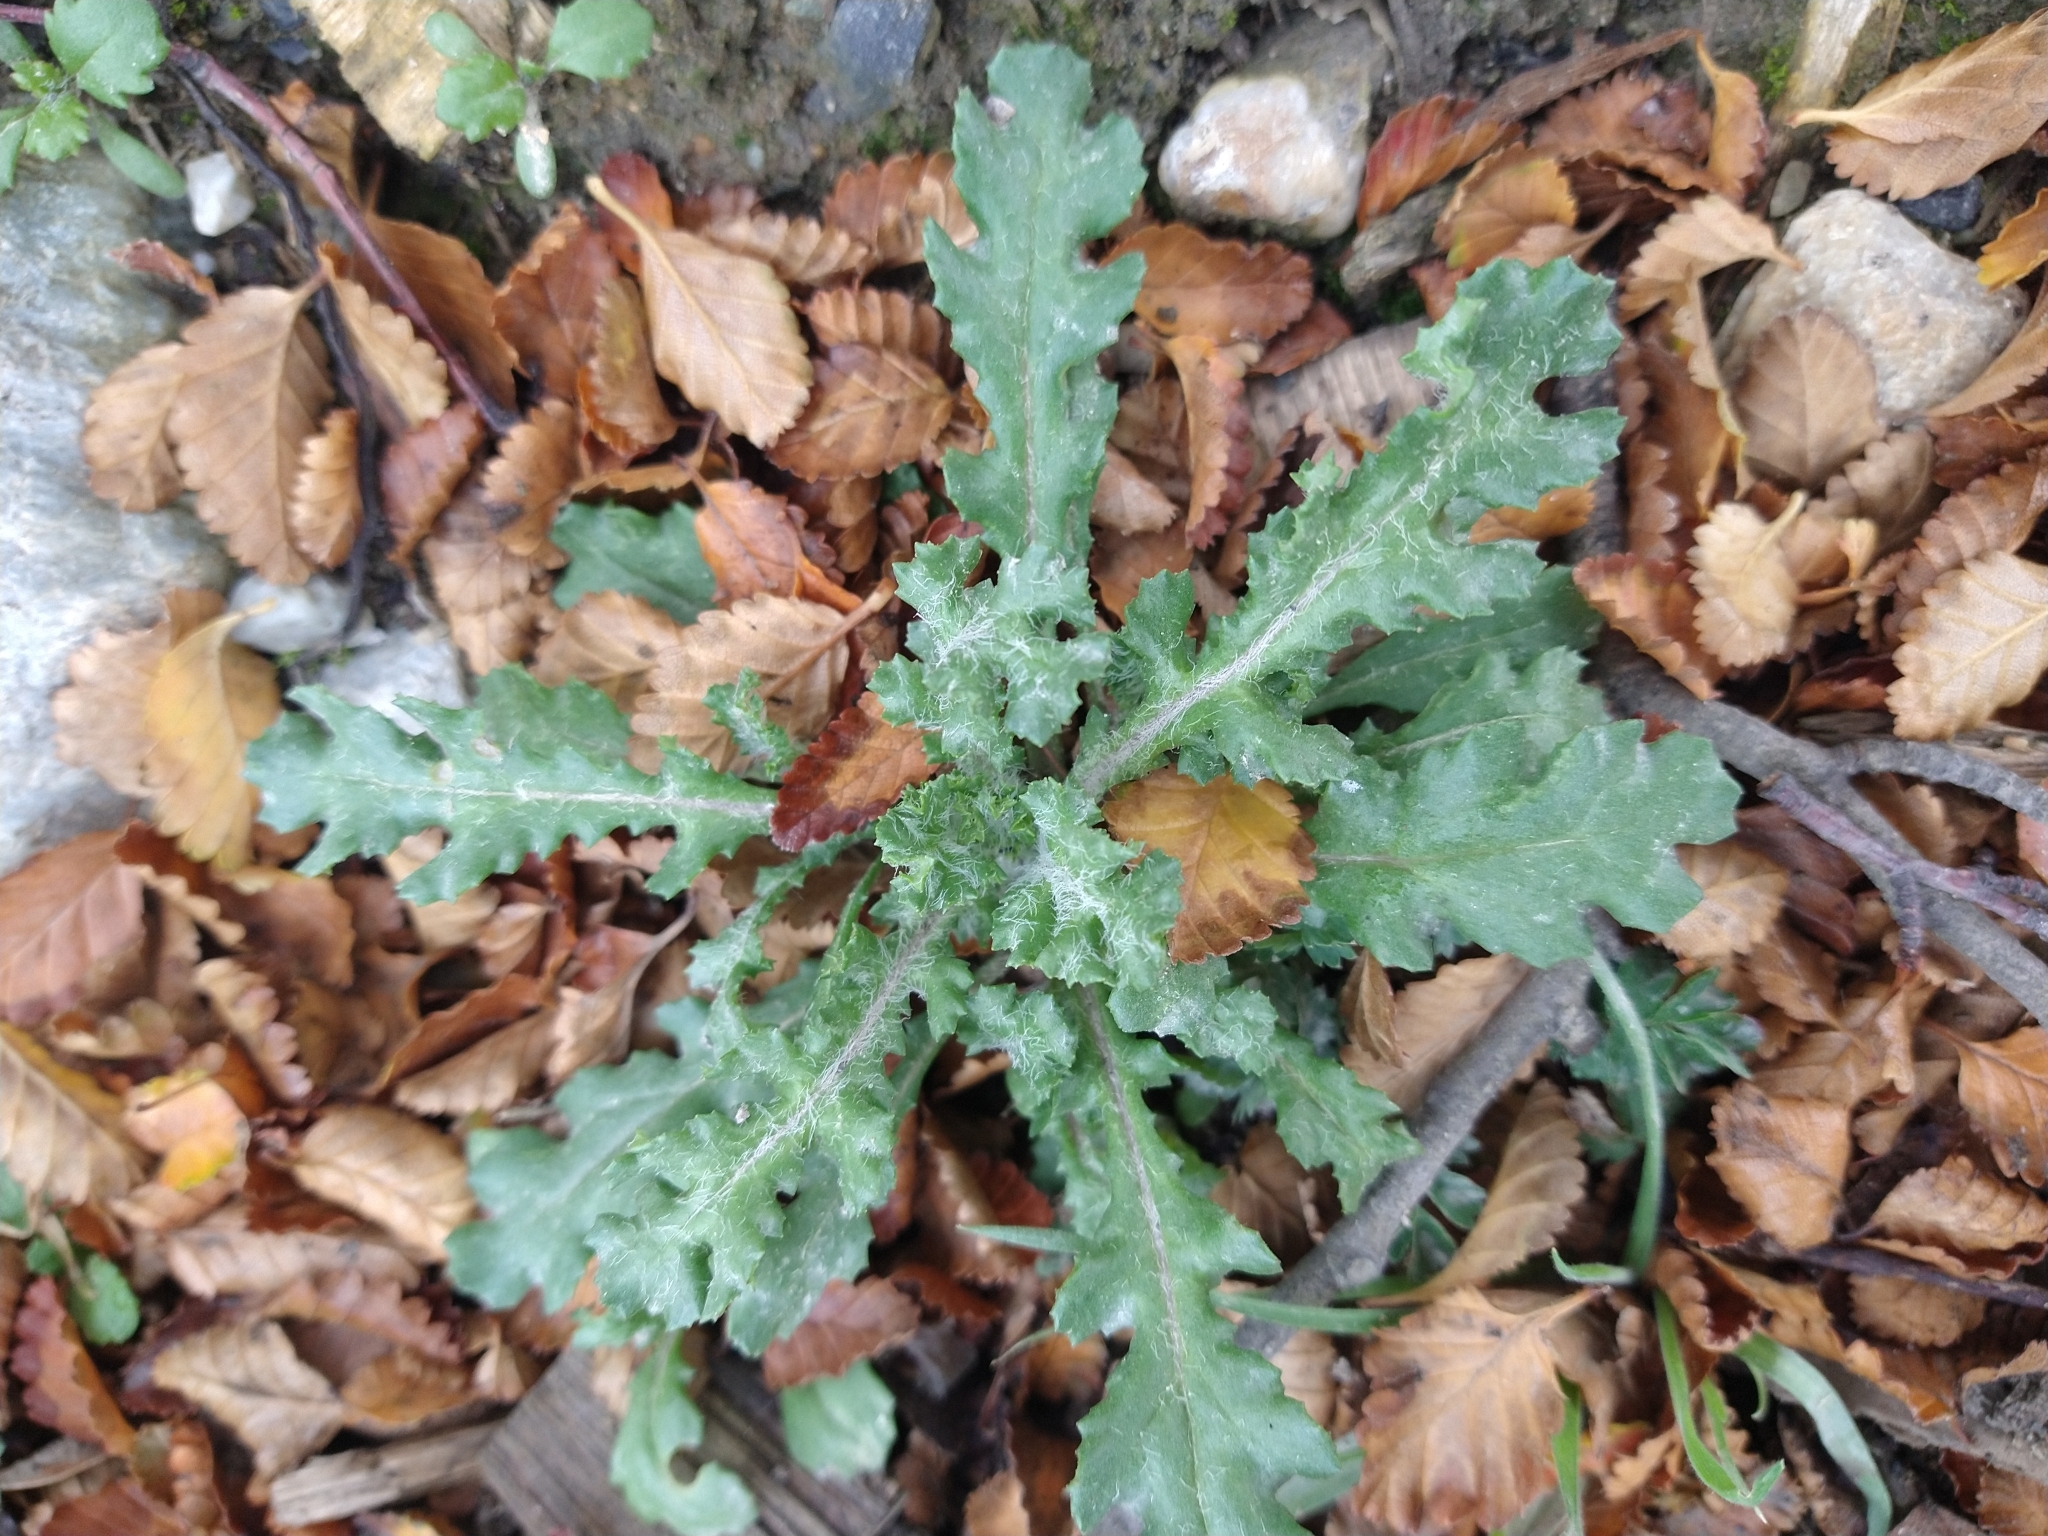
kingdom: Plantae
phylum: Tracheophyta
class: Magnoliopsida
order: Asterales
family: Asteraceae
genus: Senecio
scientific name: Senecio vulgaris
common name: Old-man-in-the-spring
